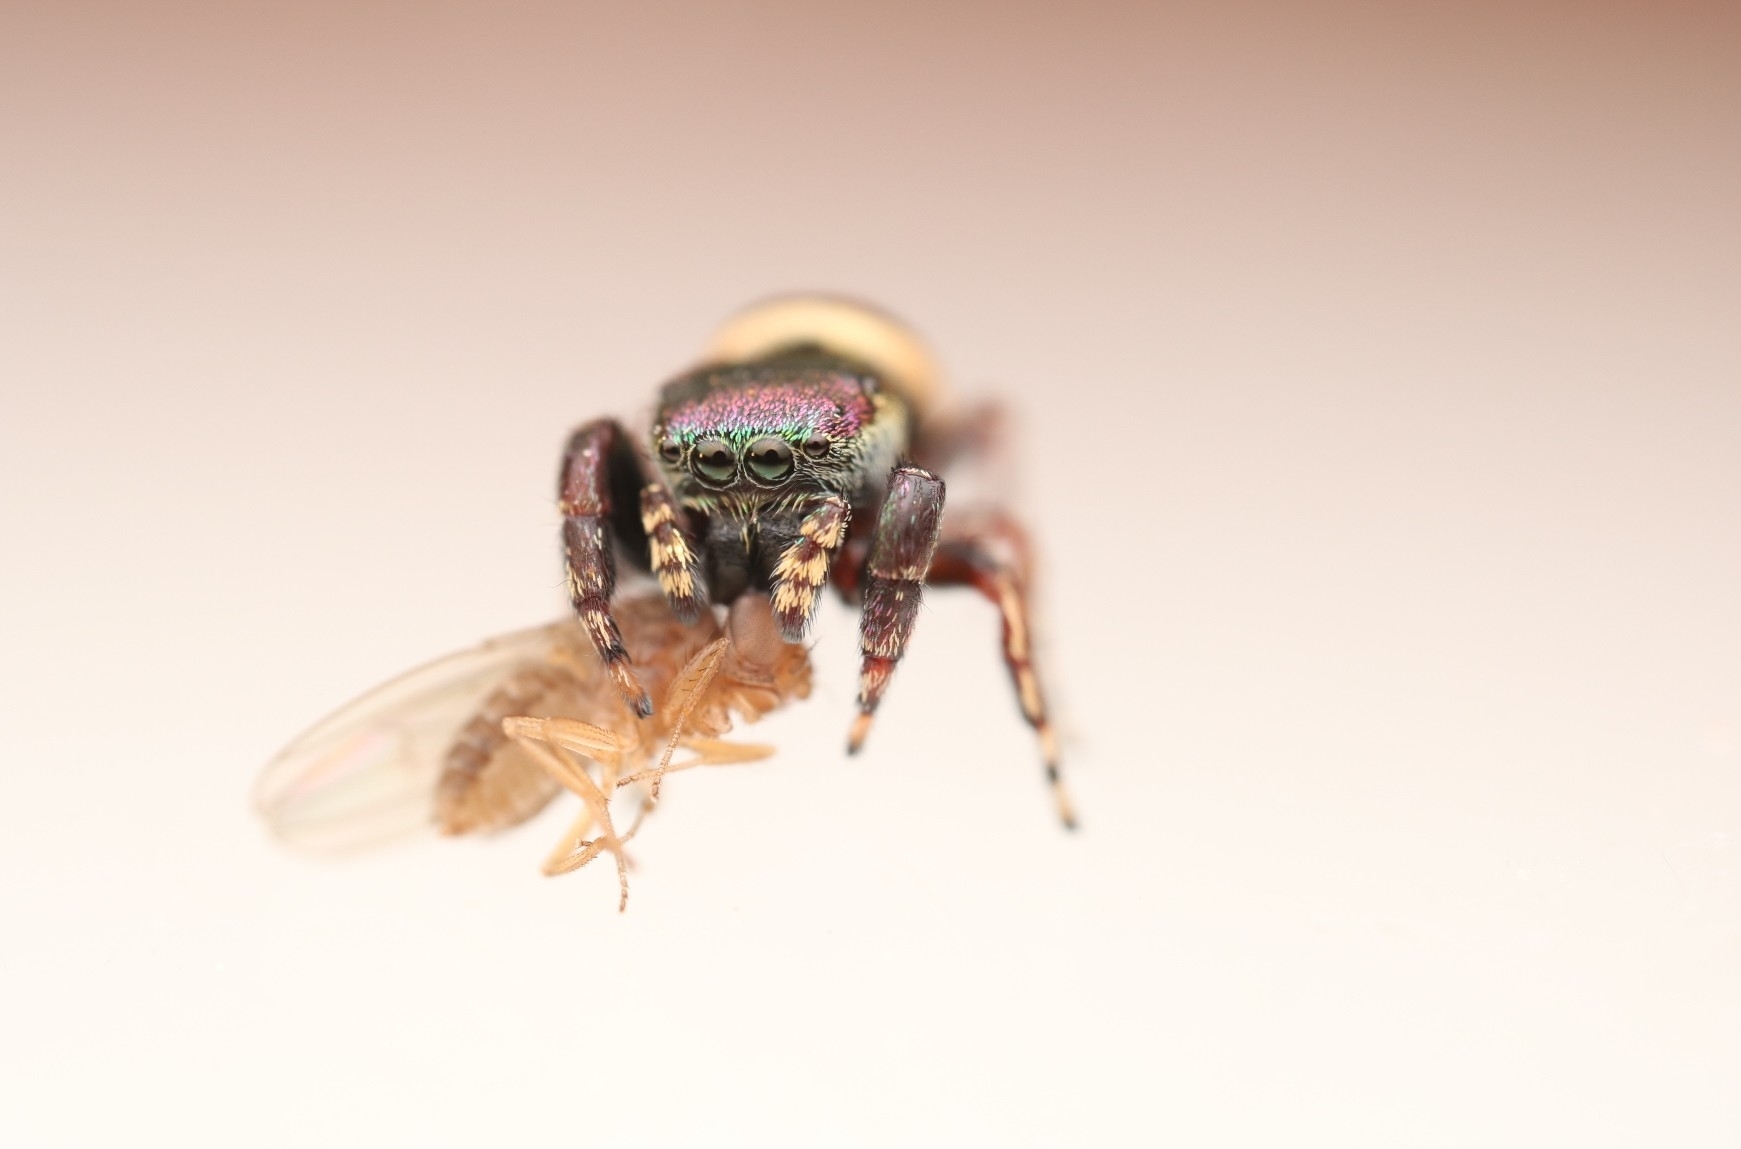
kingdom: Animalia
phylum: Arthropoda
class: Arachnida
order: Araneae
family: Salticidae
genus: Sassacus
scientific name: Sassacus papenhoei
